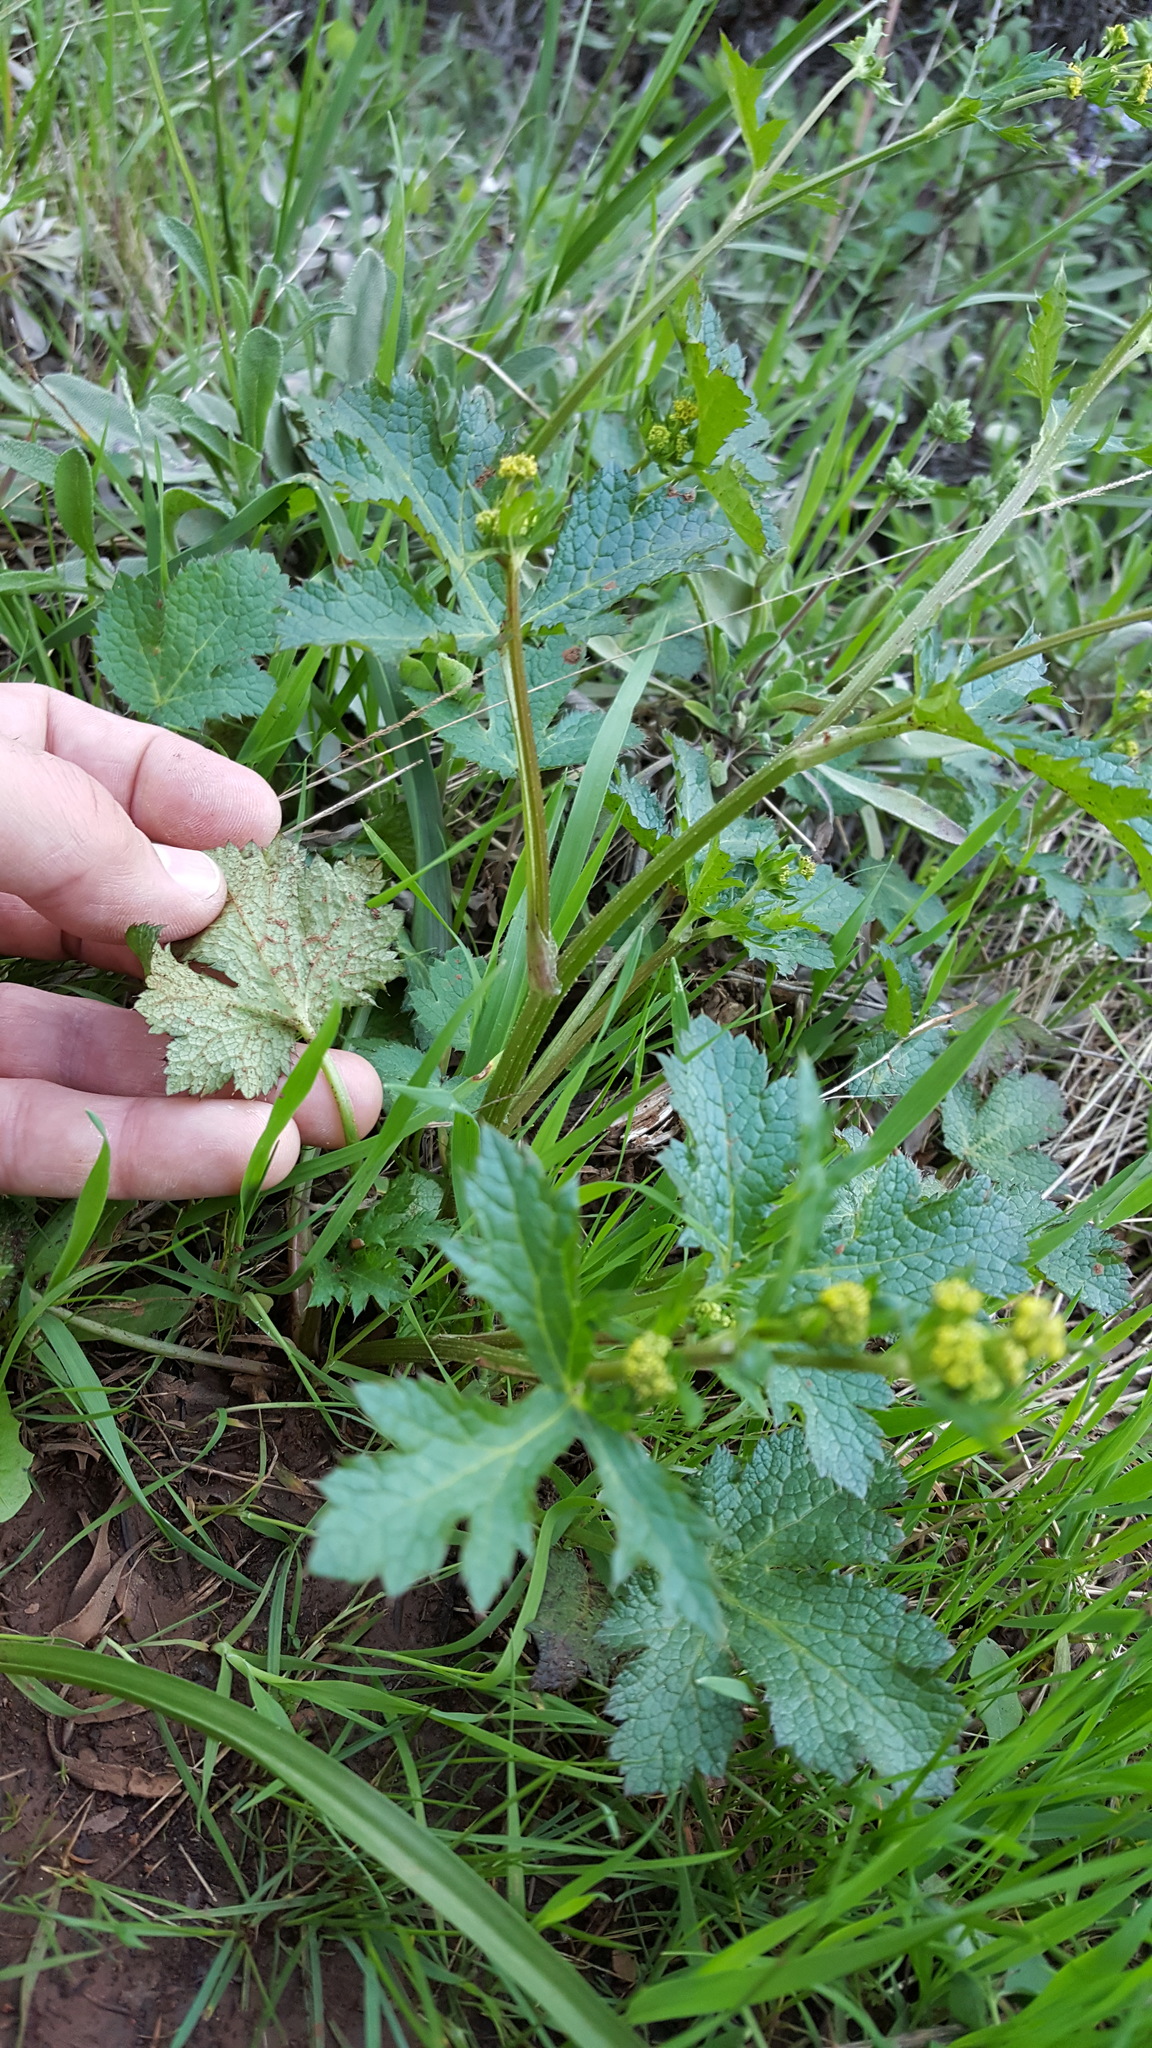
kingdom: Plantae
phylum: Tracheophyta
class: Magnoliopsida
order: Apiales
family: Apiaceae
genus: Sanicula
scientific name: Sanicula crassicaulis
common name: Western snakeroot
